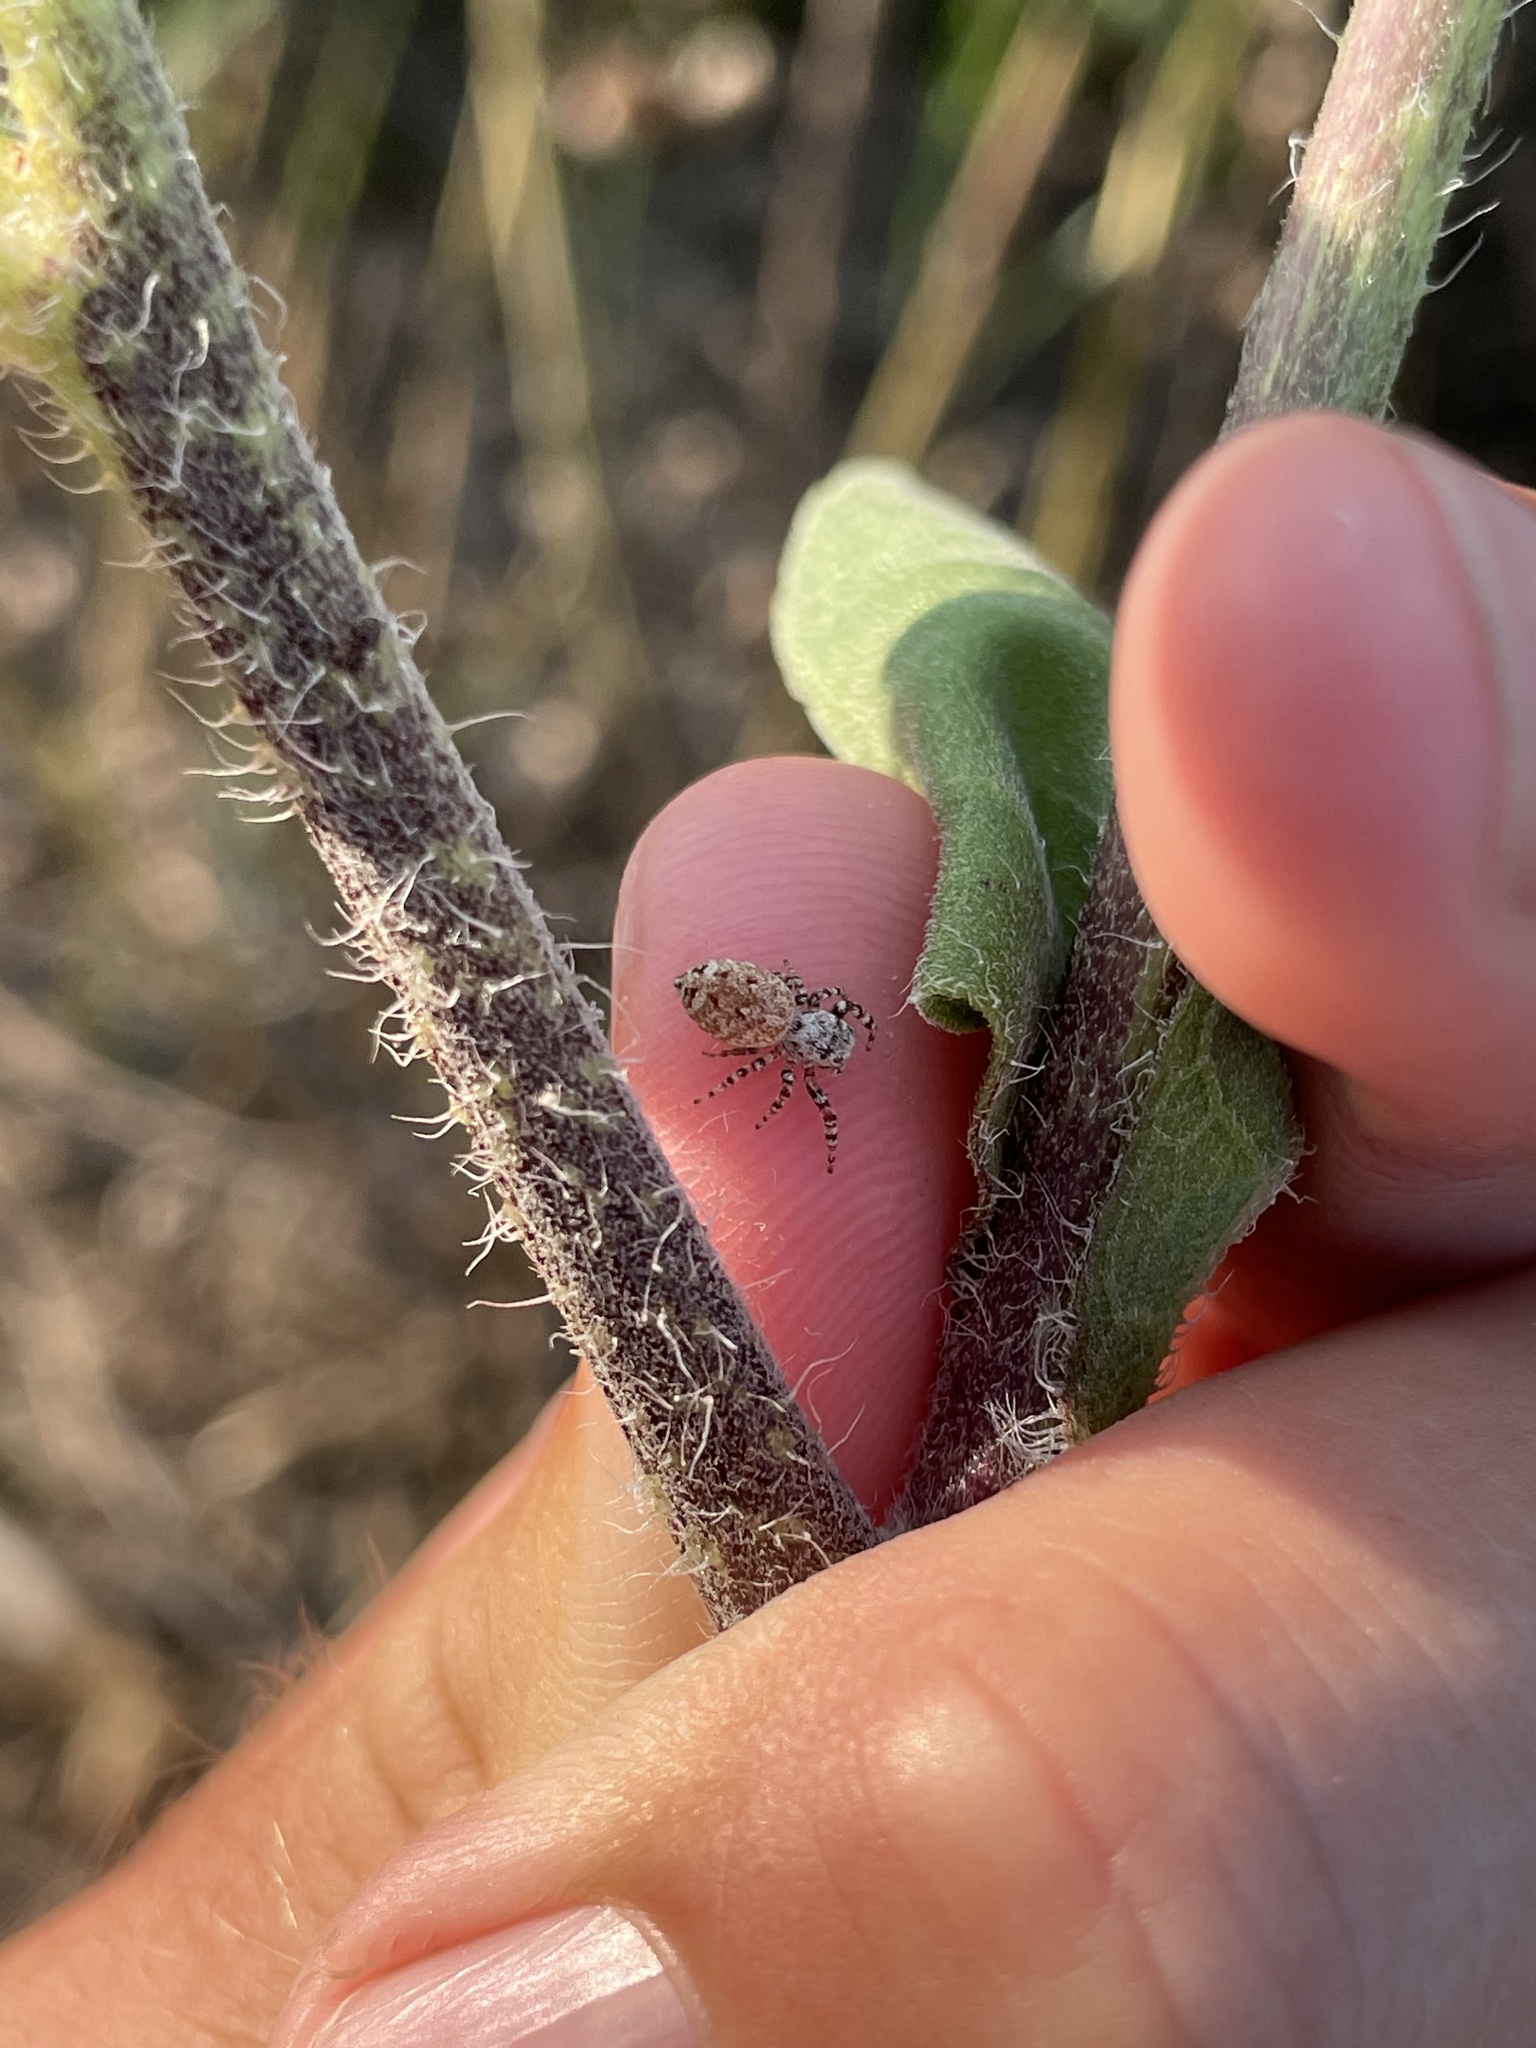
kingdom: Animalia
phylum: Arthropoda
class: Arachnida
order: Araneae
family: Salticidae
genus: Pelegrina
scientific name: Pelegrina galathea
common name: Jumping spiders
